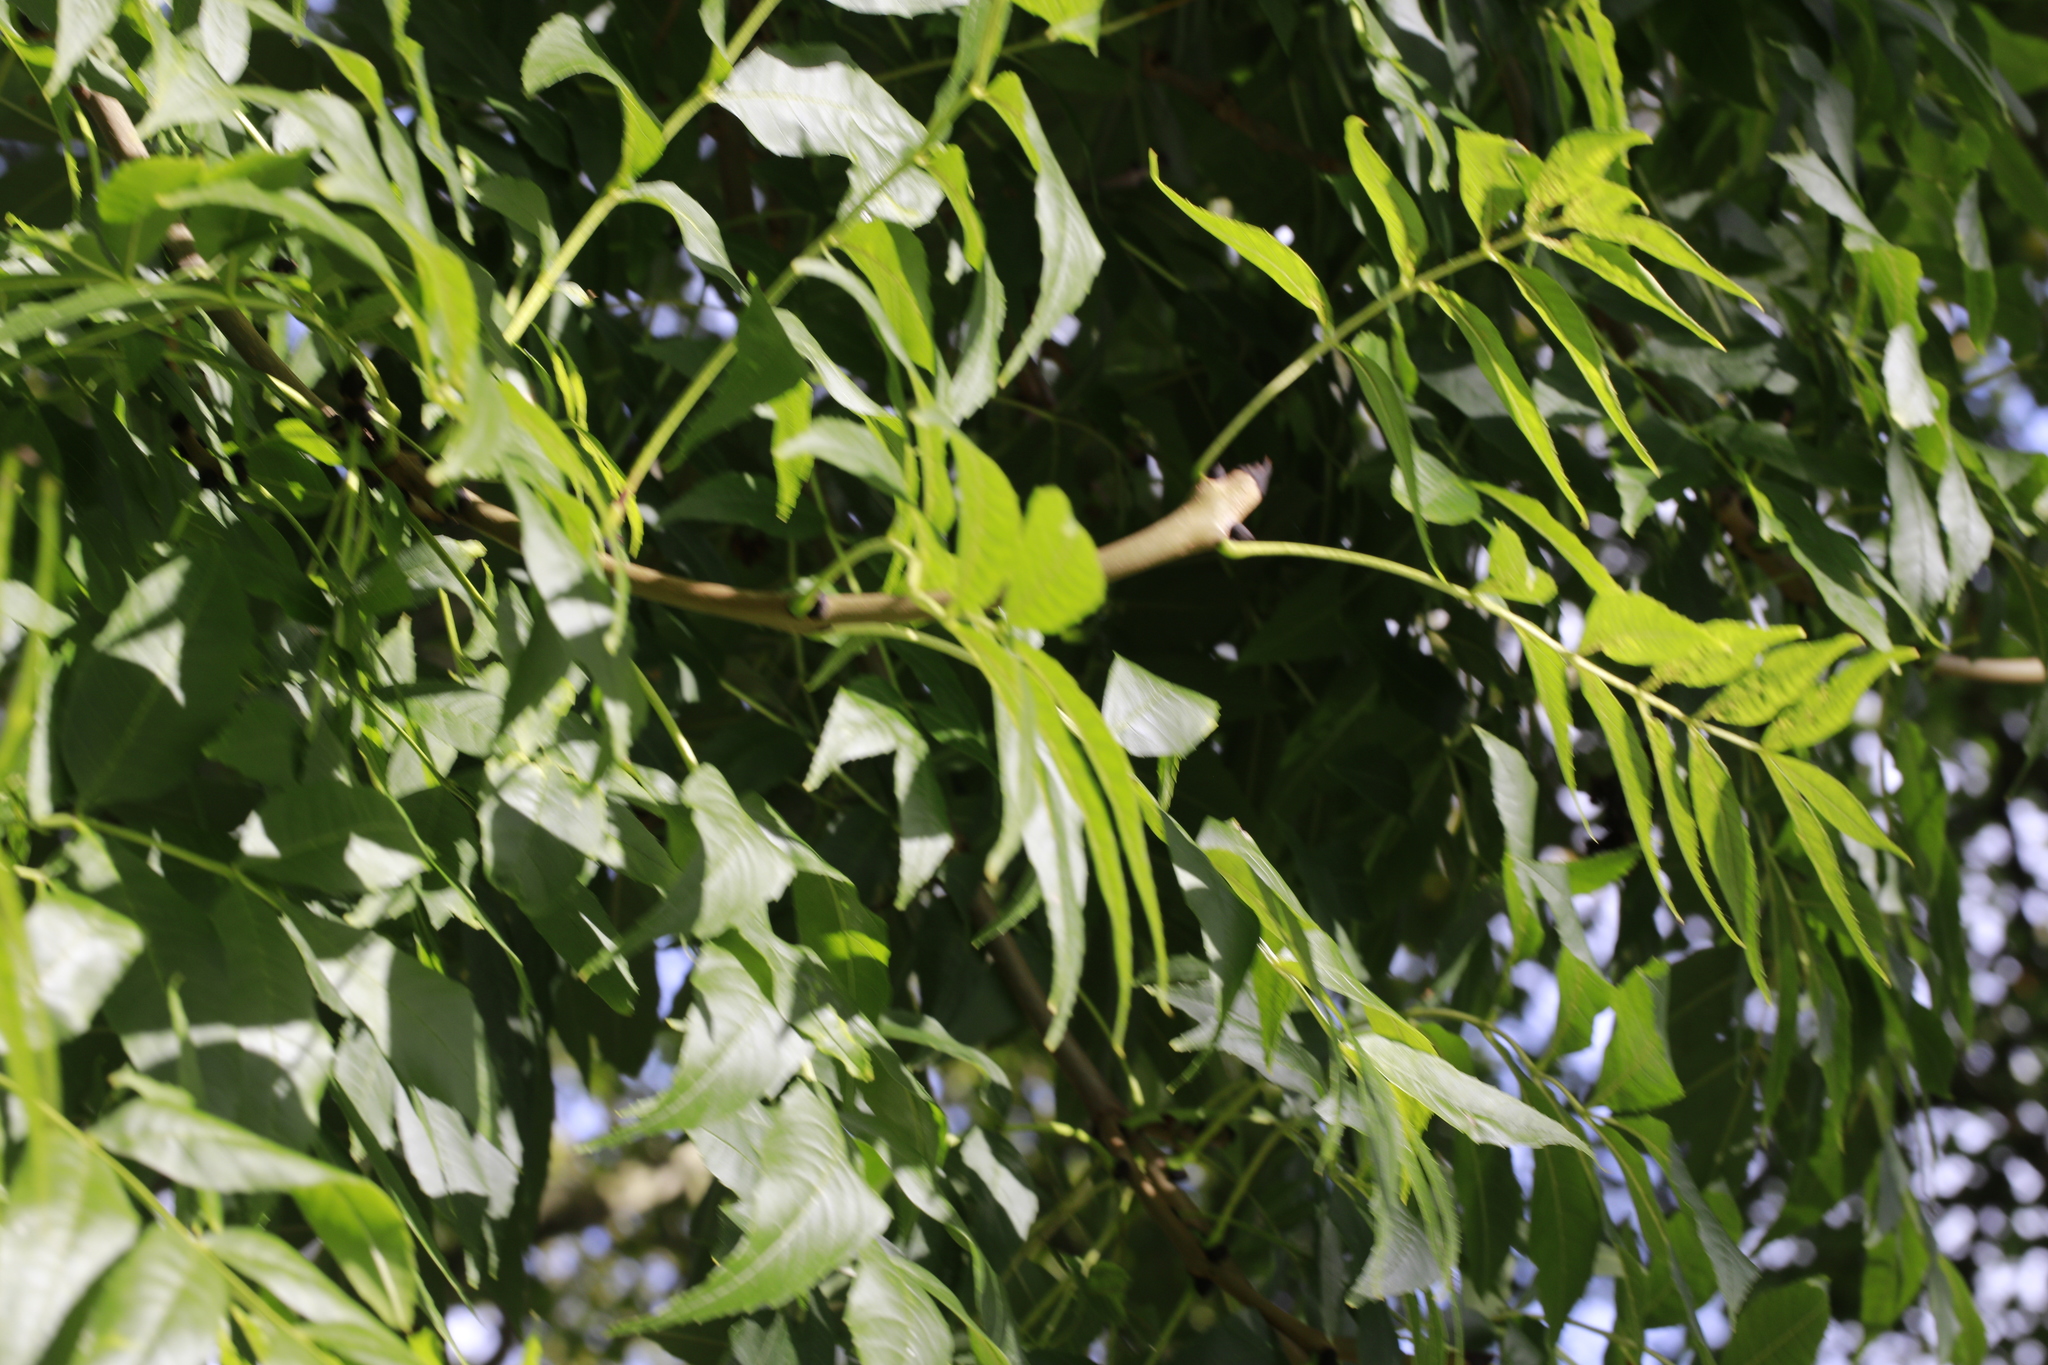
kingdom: Plantae
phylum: Tracheophyta
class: Magnoliopsida
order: Lamiales
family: Oleaceae
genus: Fraxinus
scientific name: Fraxinus excelsior
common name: European ash
